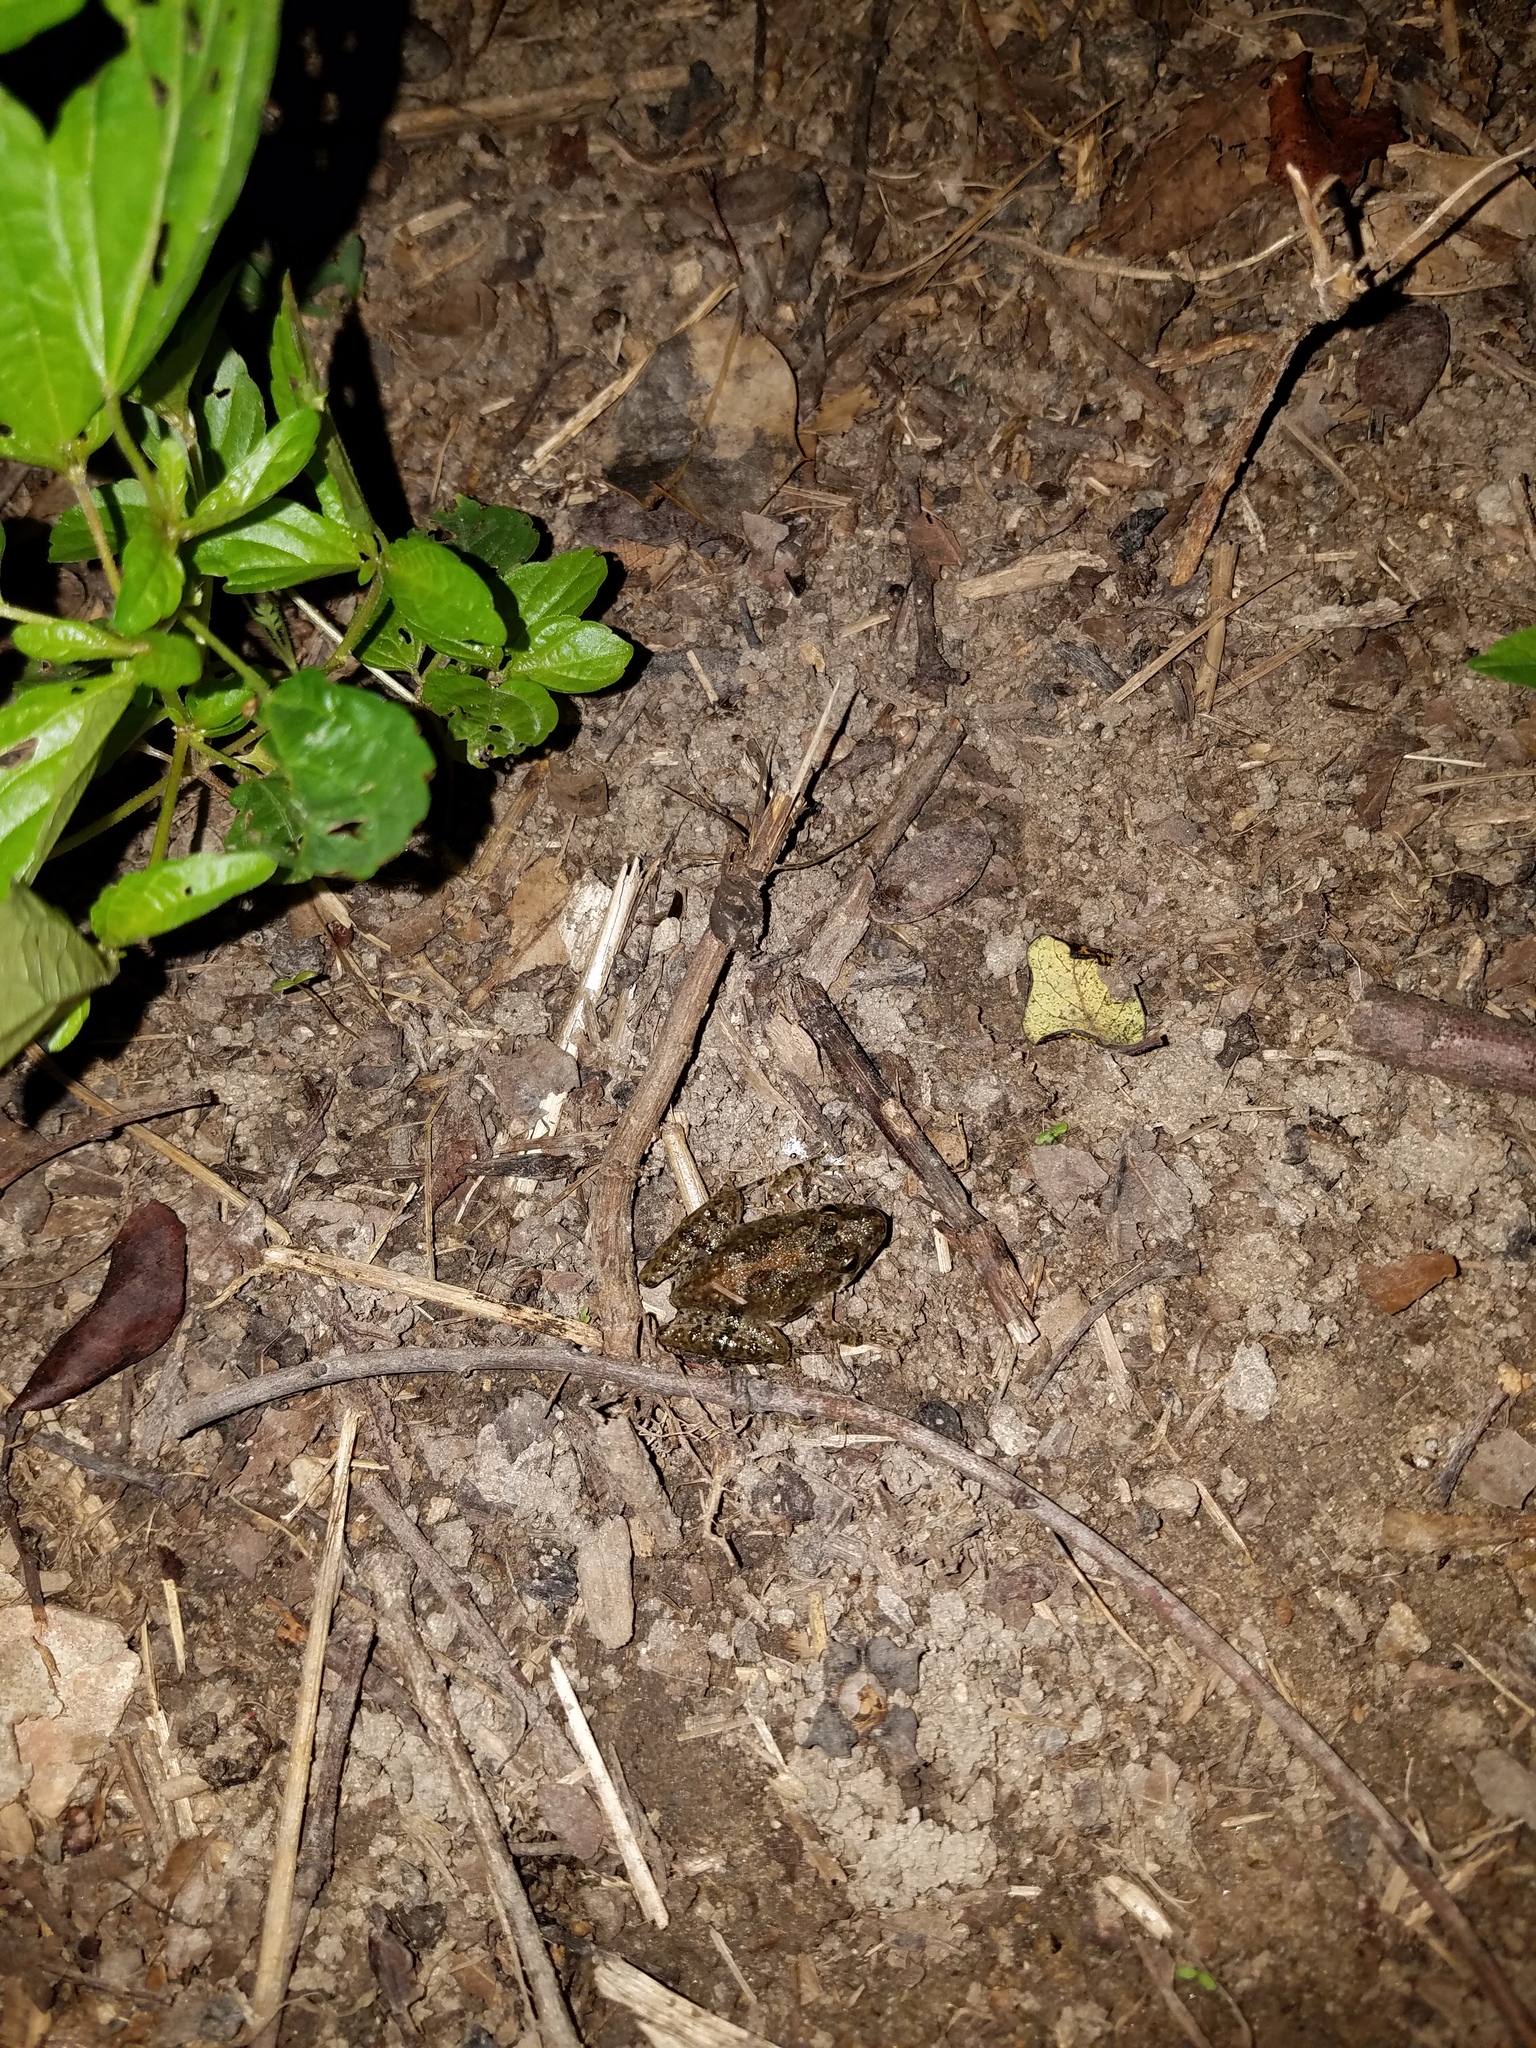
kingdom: Animalia
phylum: Chordata
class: Amphibia
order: Anura
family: Hylidae
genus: Acris
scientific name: Acris crepitans
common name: Northern cricket frog
